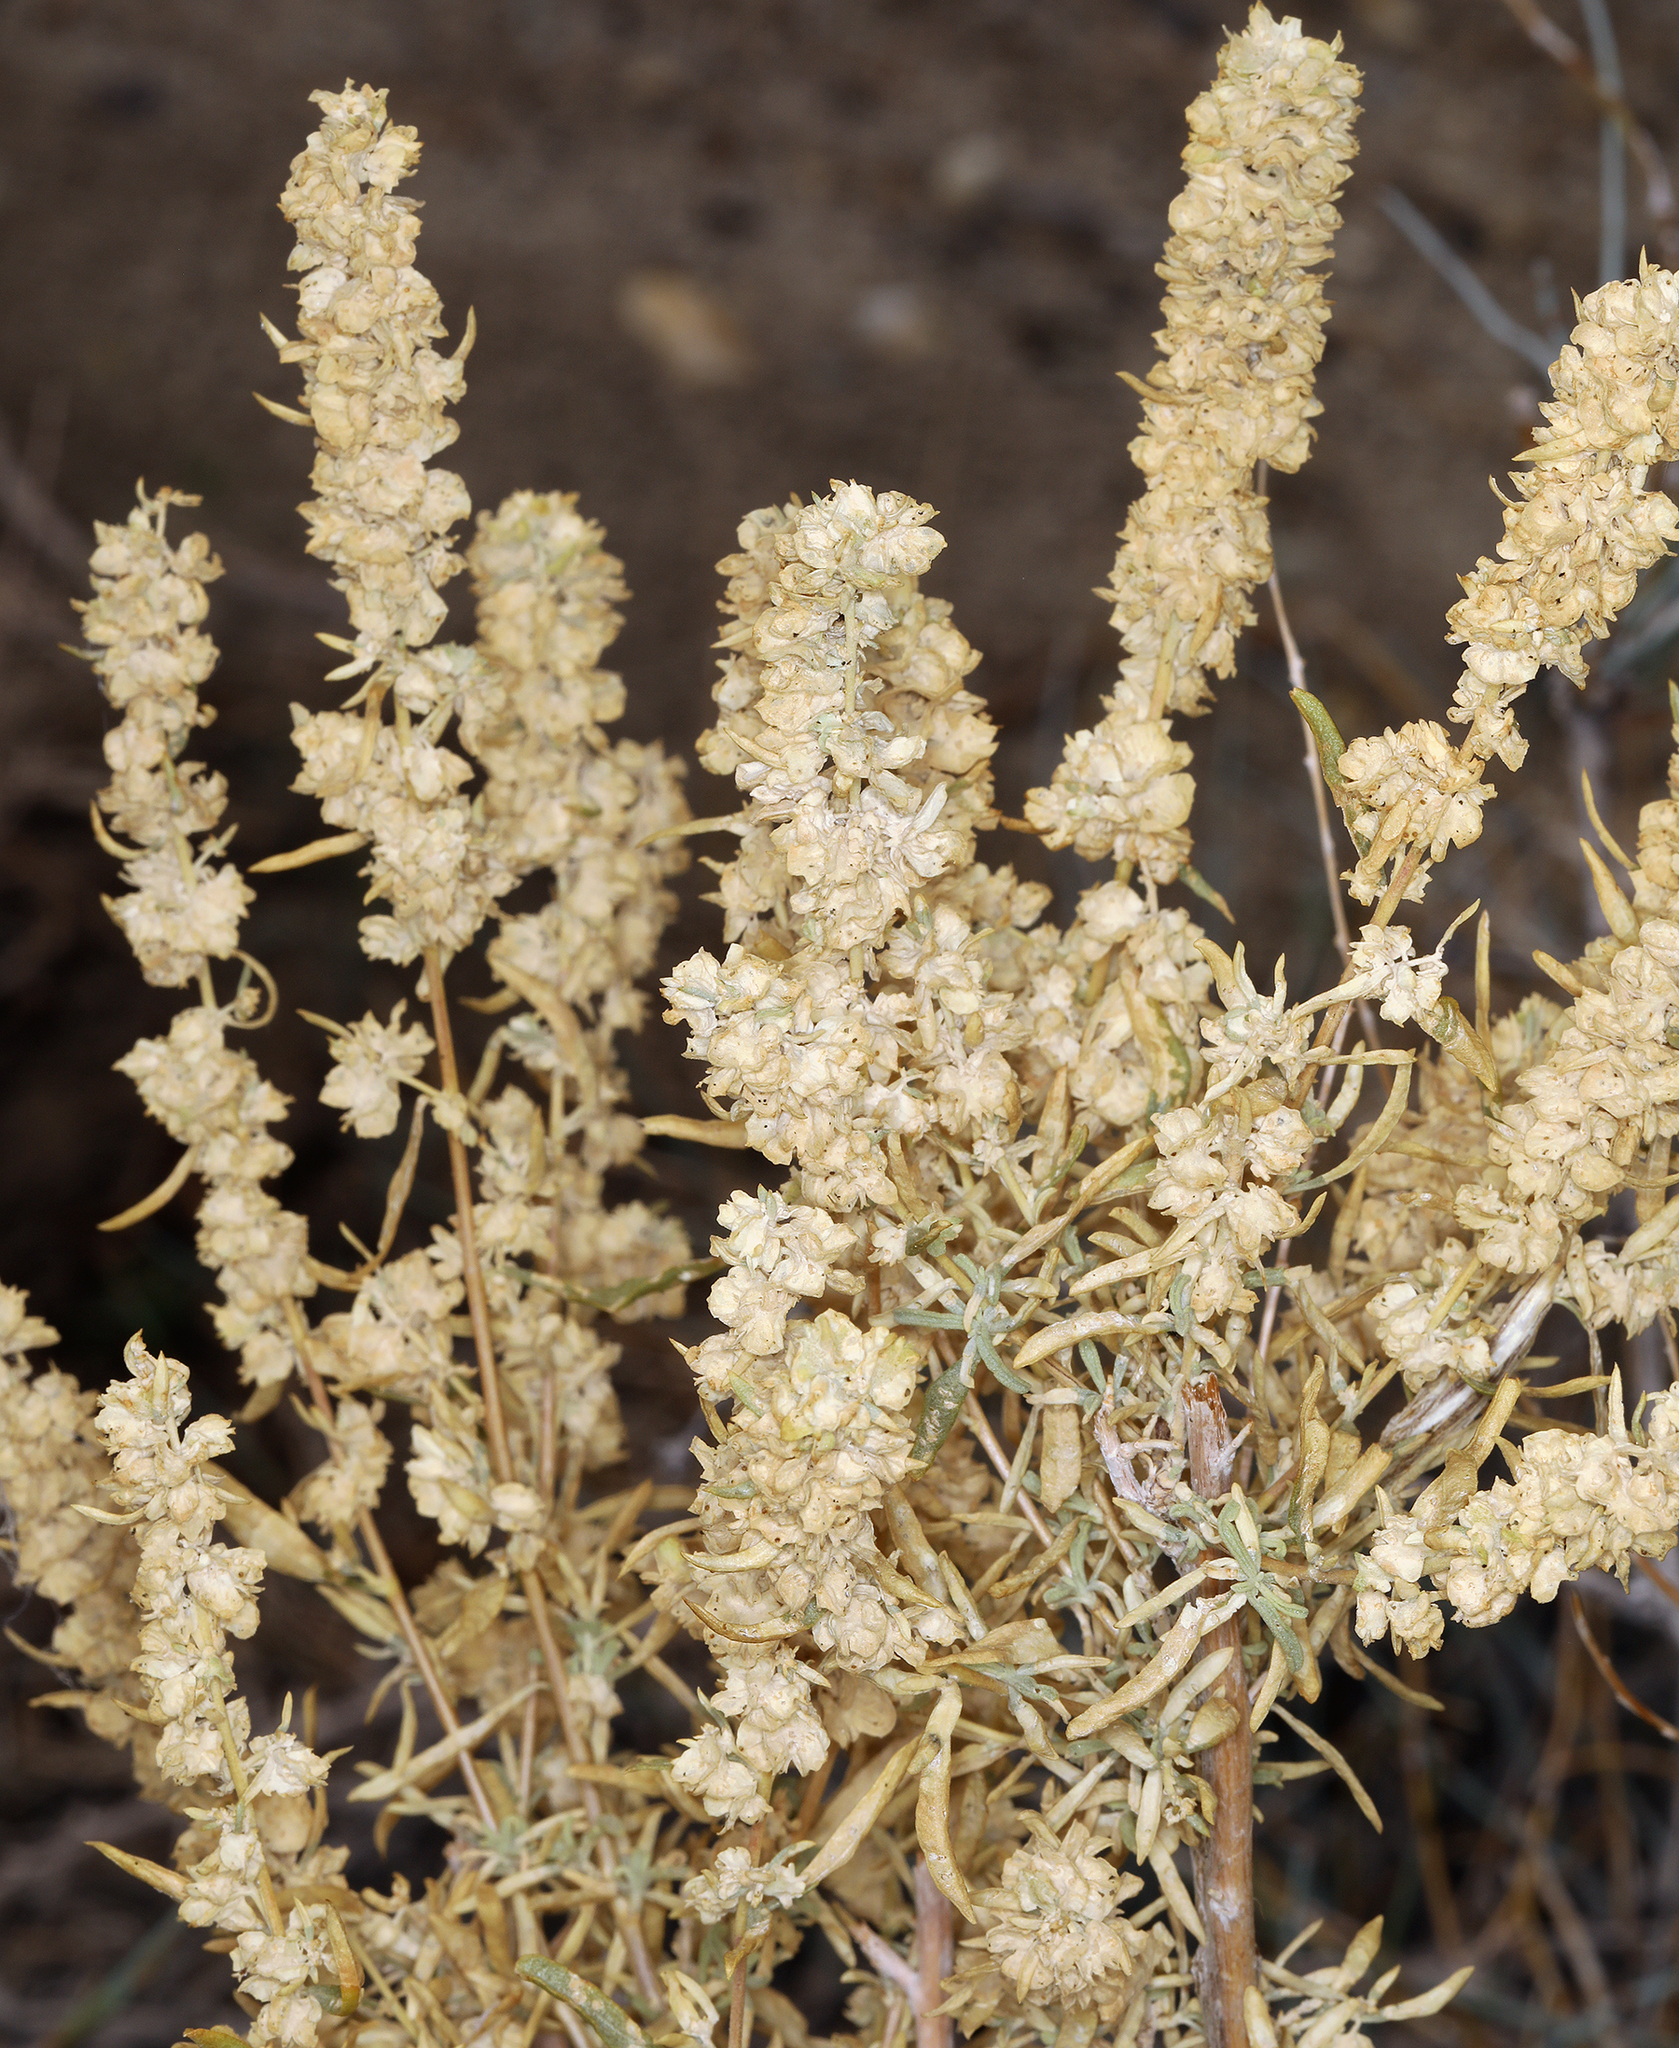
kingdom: Plantae
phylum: Tracheophyta
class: Magnoliopsida
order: Caryophyllales
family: Amaranthaceae
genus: Atriplex
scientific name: Atriplex canescens
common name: Four-wing saltbush
